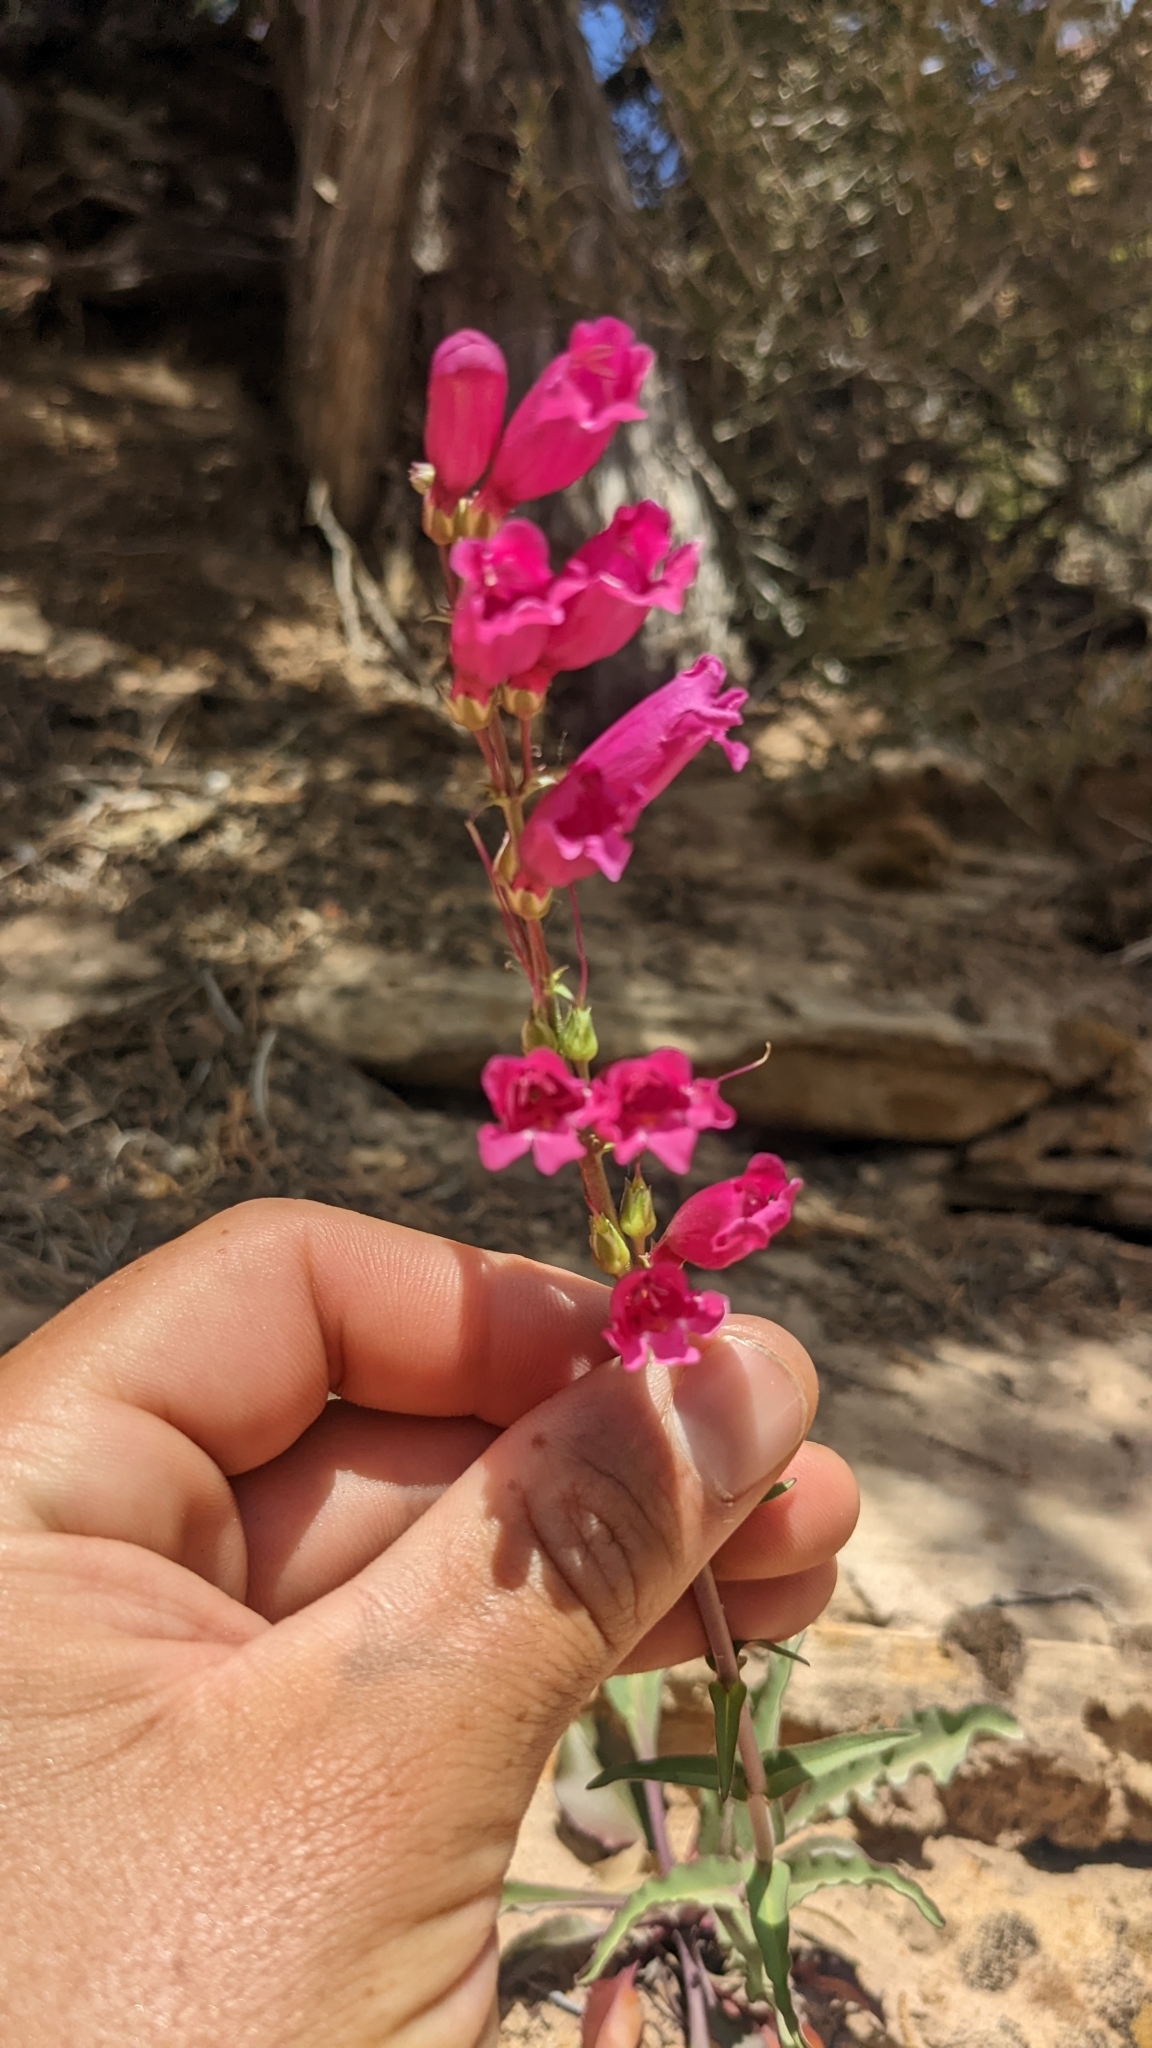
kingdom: Plantae
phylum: Tracheophyta
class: Magnoliopsida
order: Lamiales
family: Plantaginaceae
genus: Penstemon
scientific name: Penstemon jonesii
